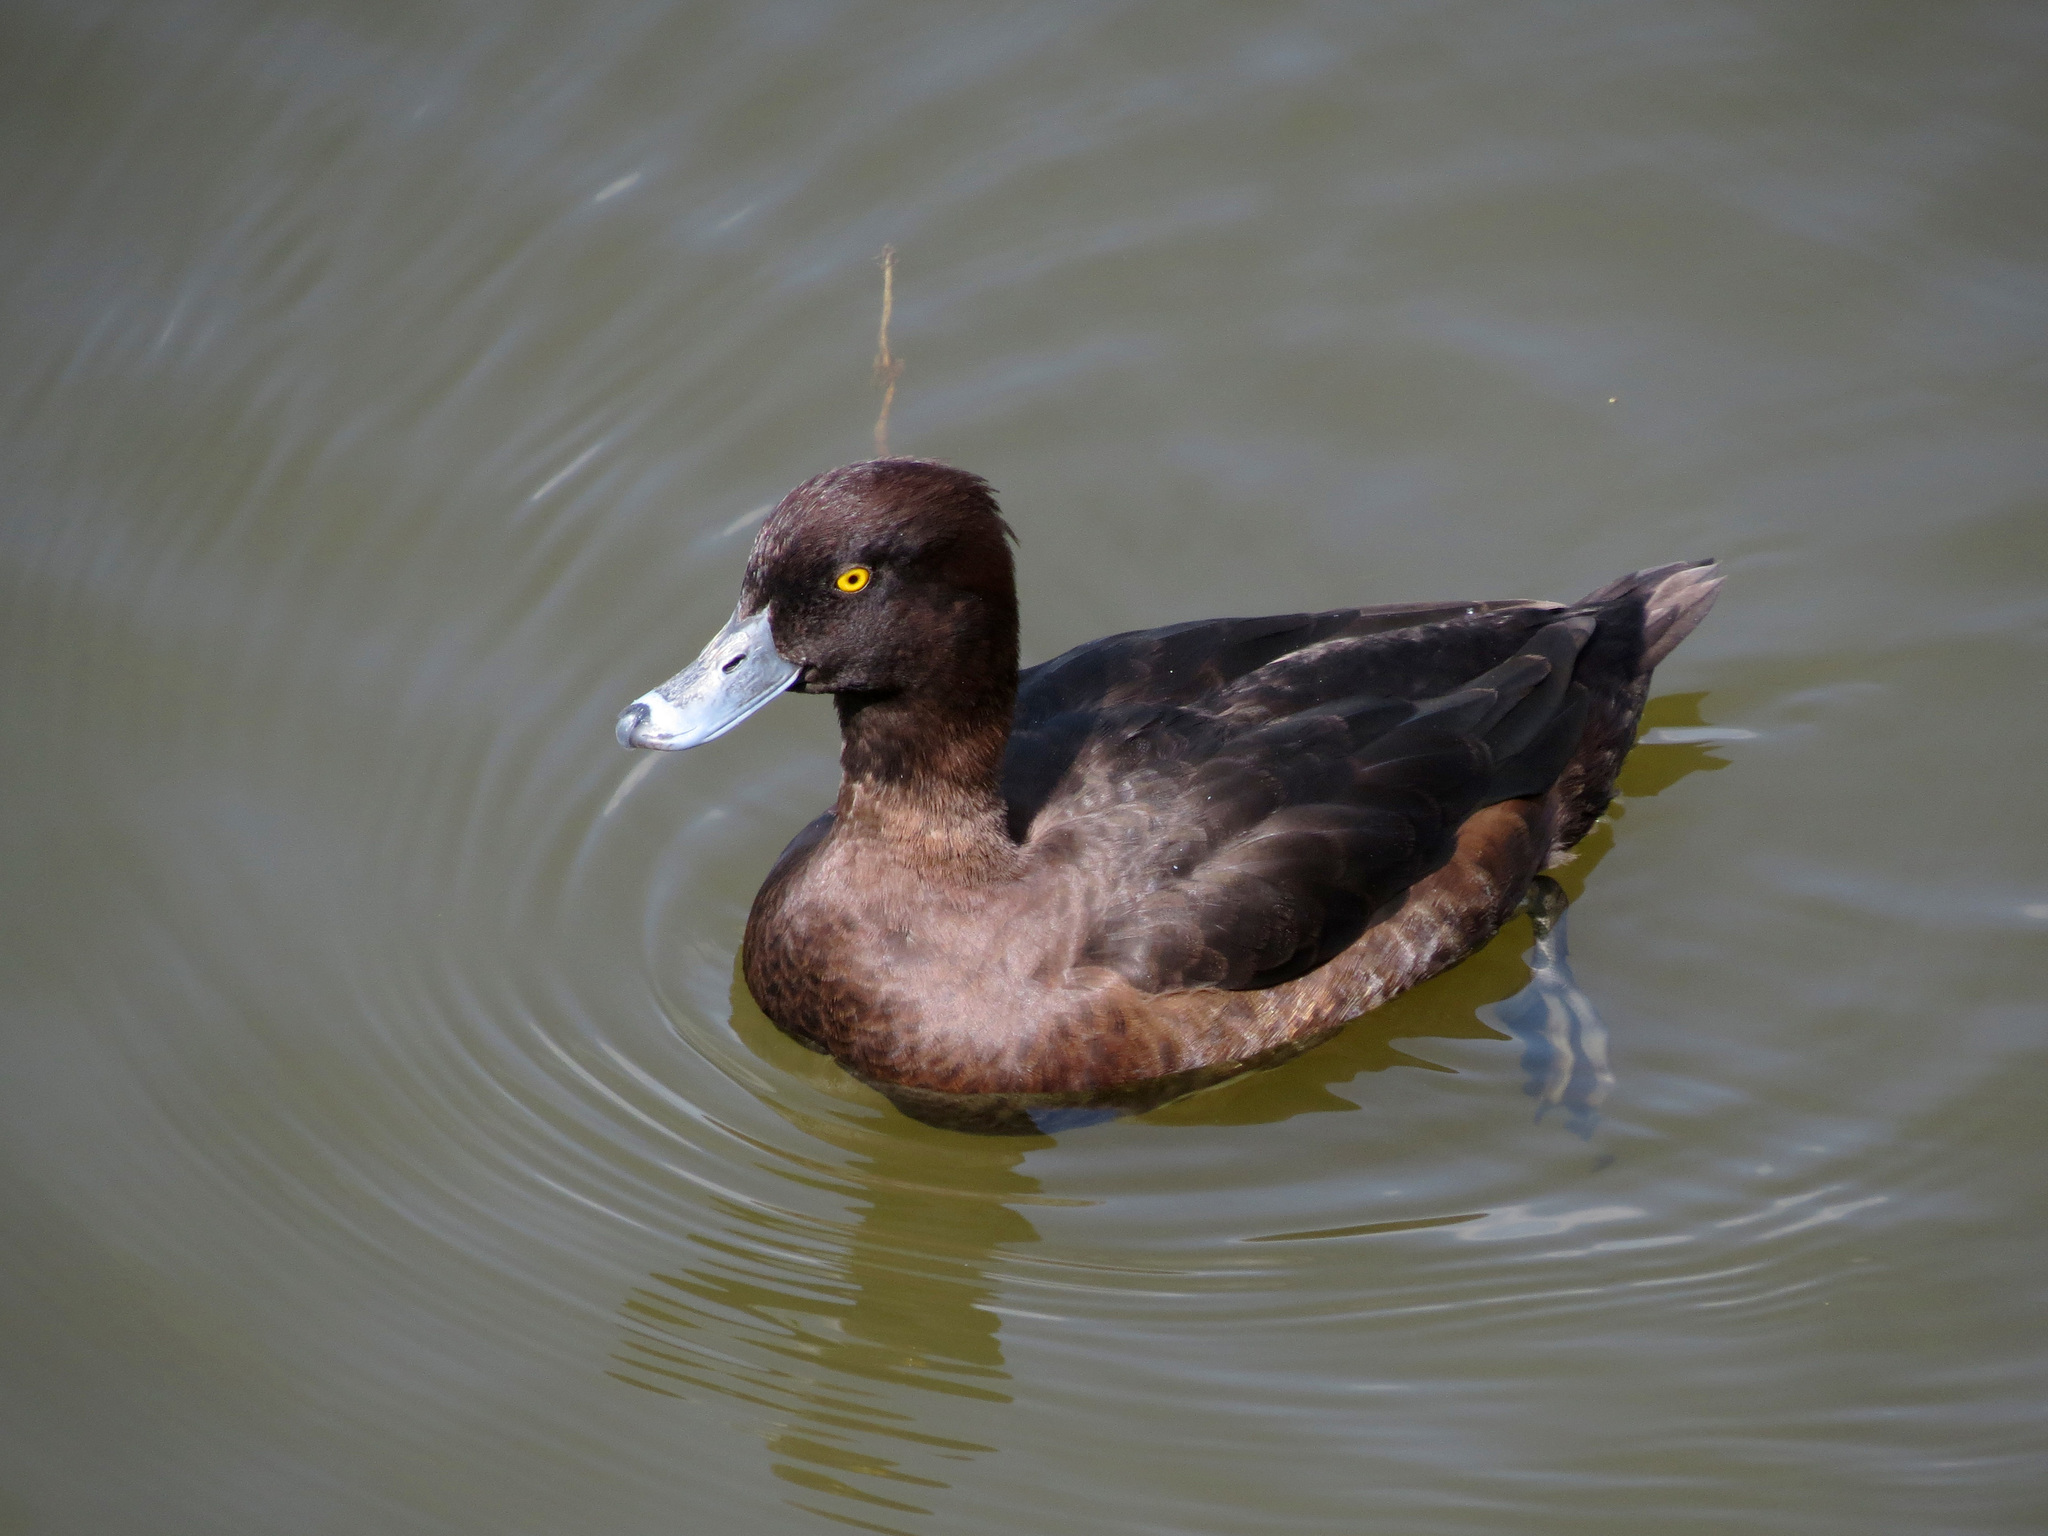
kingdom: Animalia
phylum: Chordata
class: Aves
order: Anseriformes
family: Anatidae
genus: Aythya
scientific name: Aythya fuligula
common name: Tufted duck
